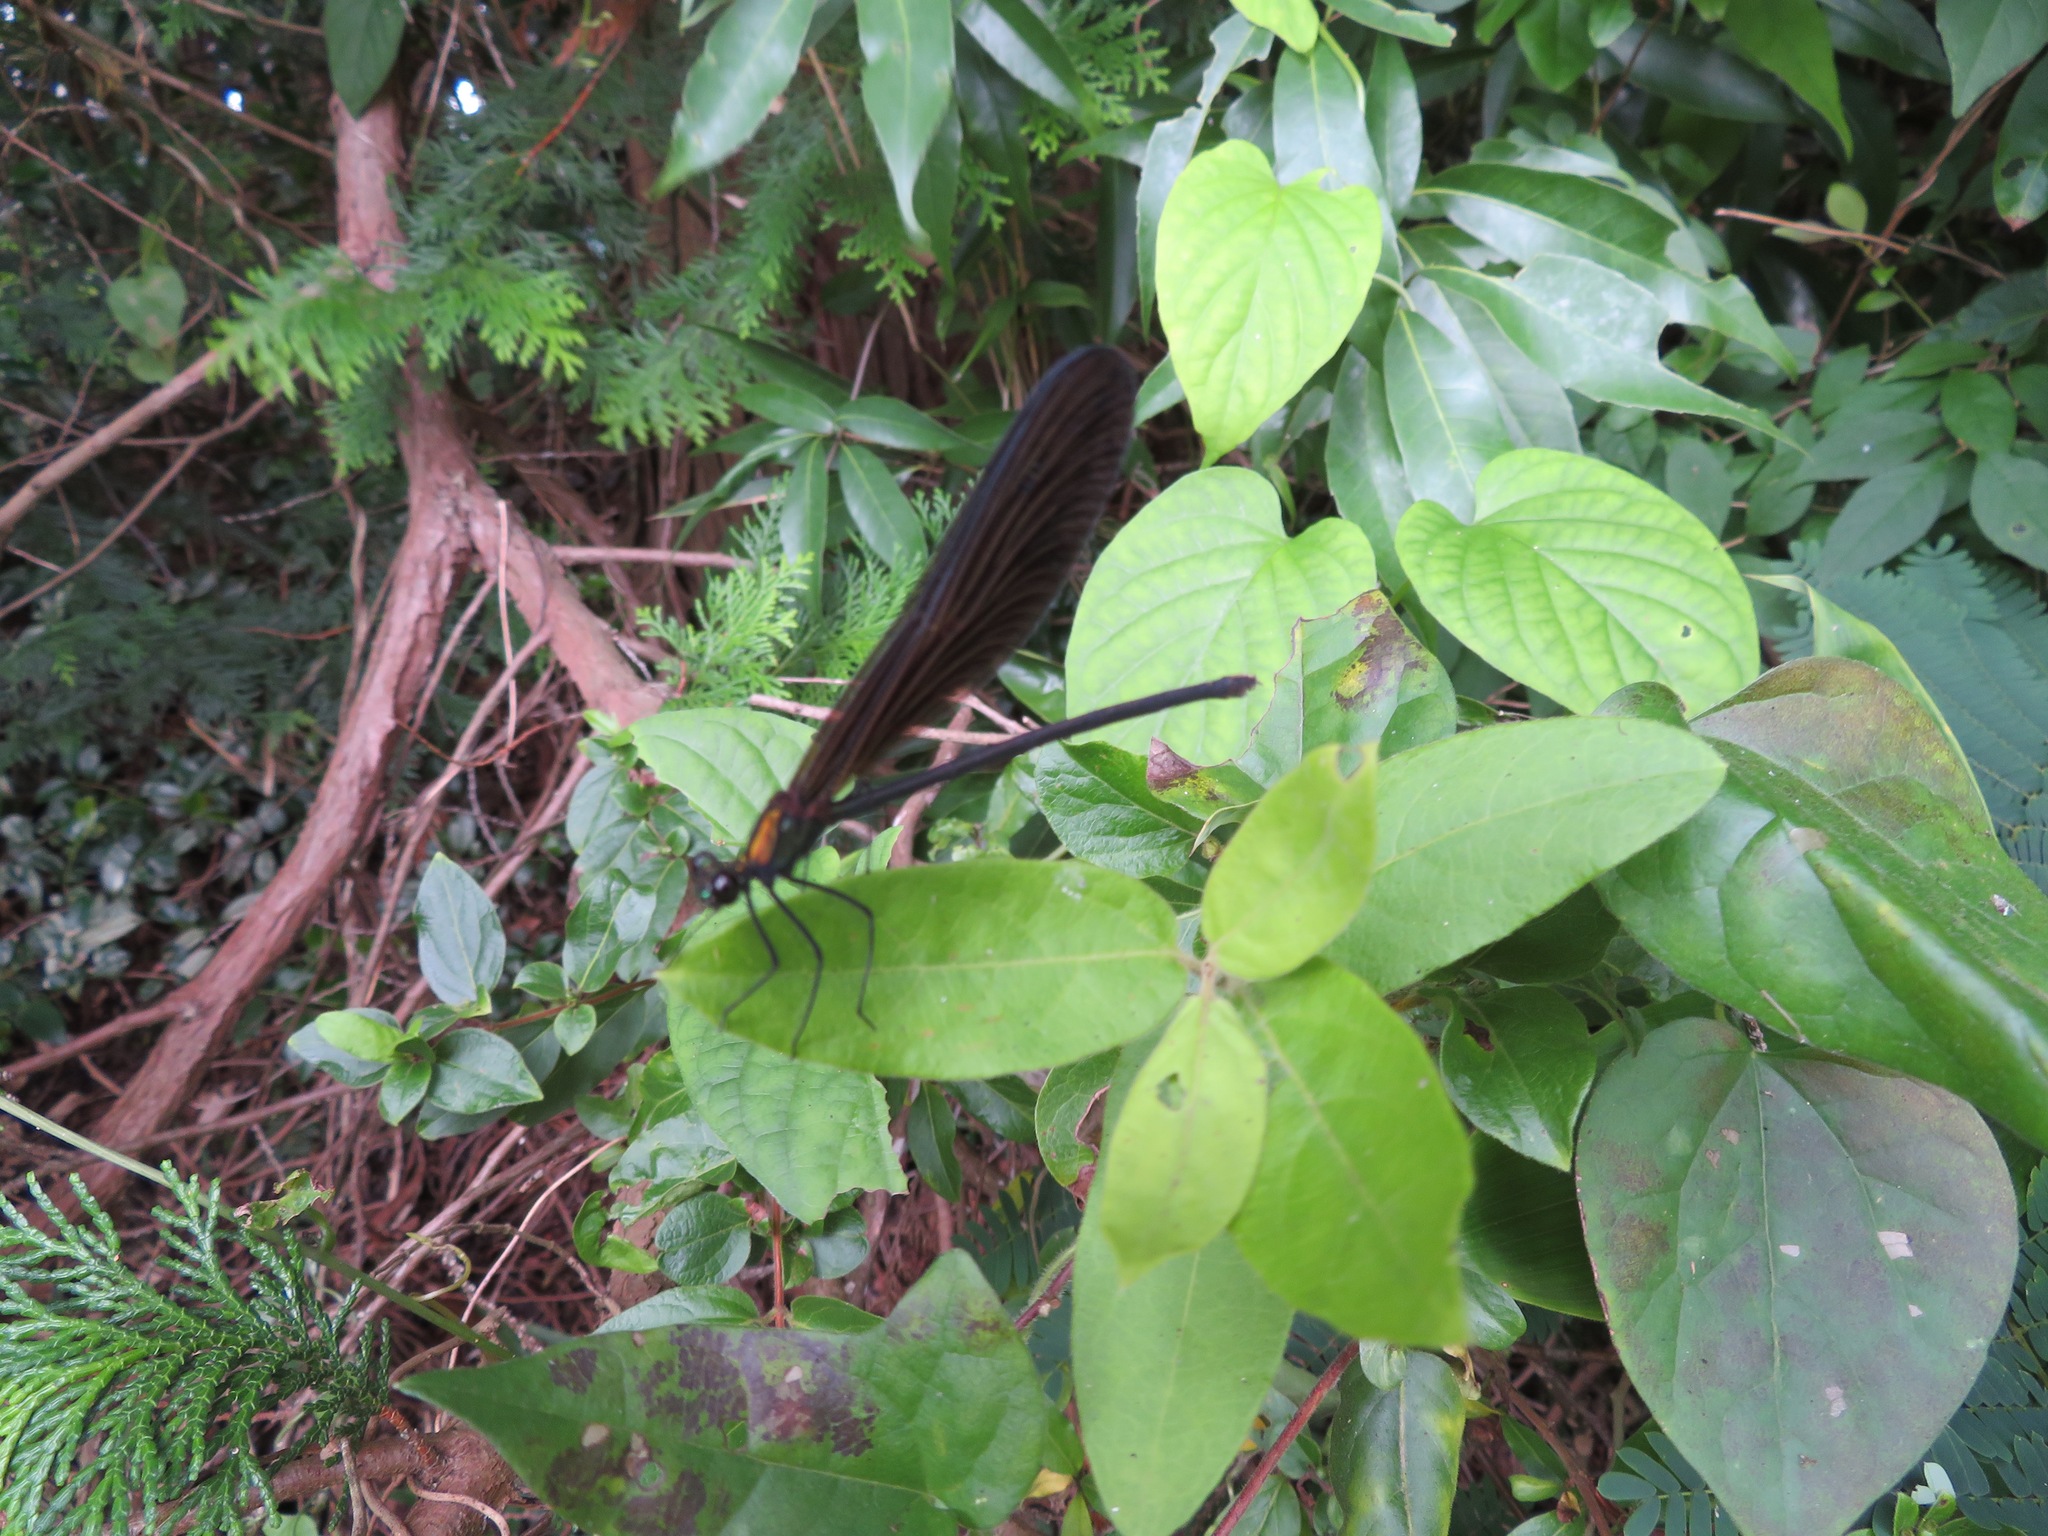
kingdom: Animalia
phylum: Arthropoda
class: Insecta
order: Odonata
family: Calopterygidae
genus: Atrocalopteryx
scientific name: Atrocalopteryx atrata
